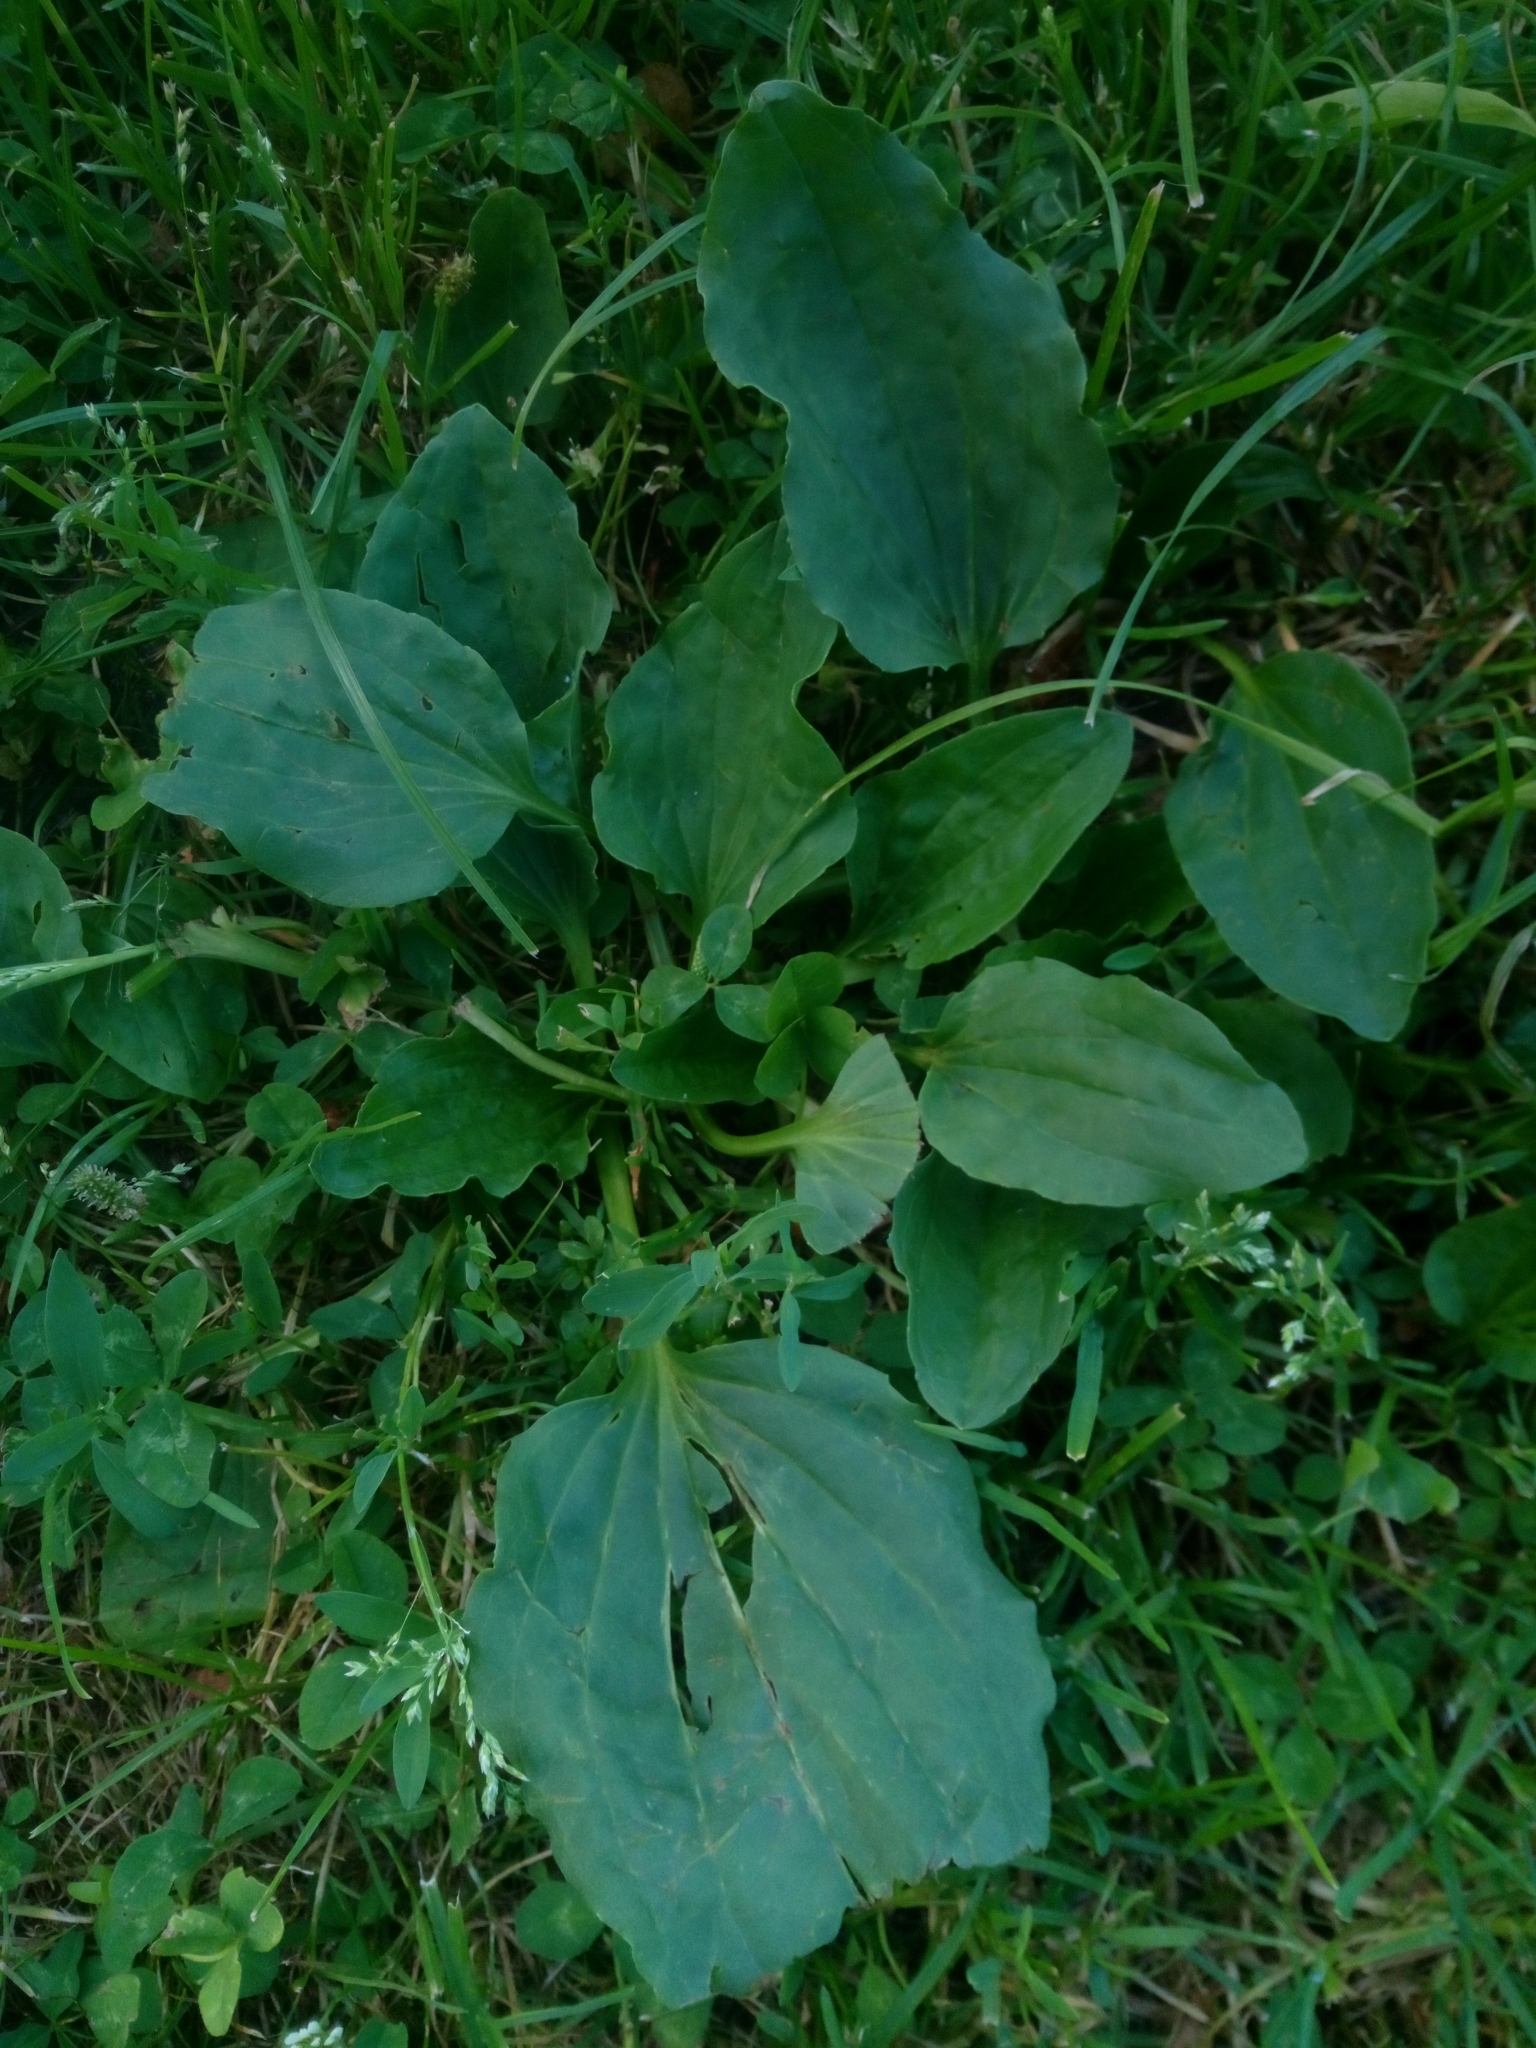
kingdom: Plantae
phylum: Tracheophyta
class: Magnoliopsida
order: Lamiales
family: Plantaginaceae
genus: Plantago
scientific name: Plantago major
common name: Common plantain
